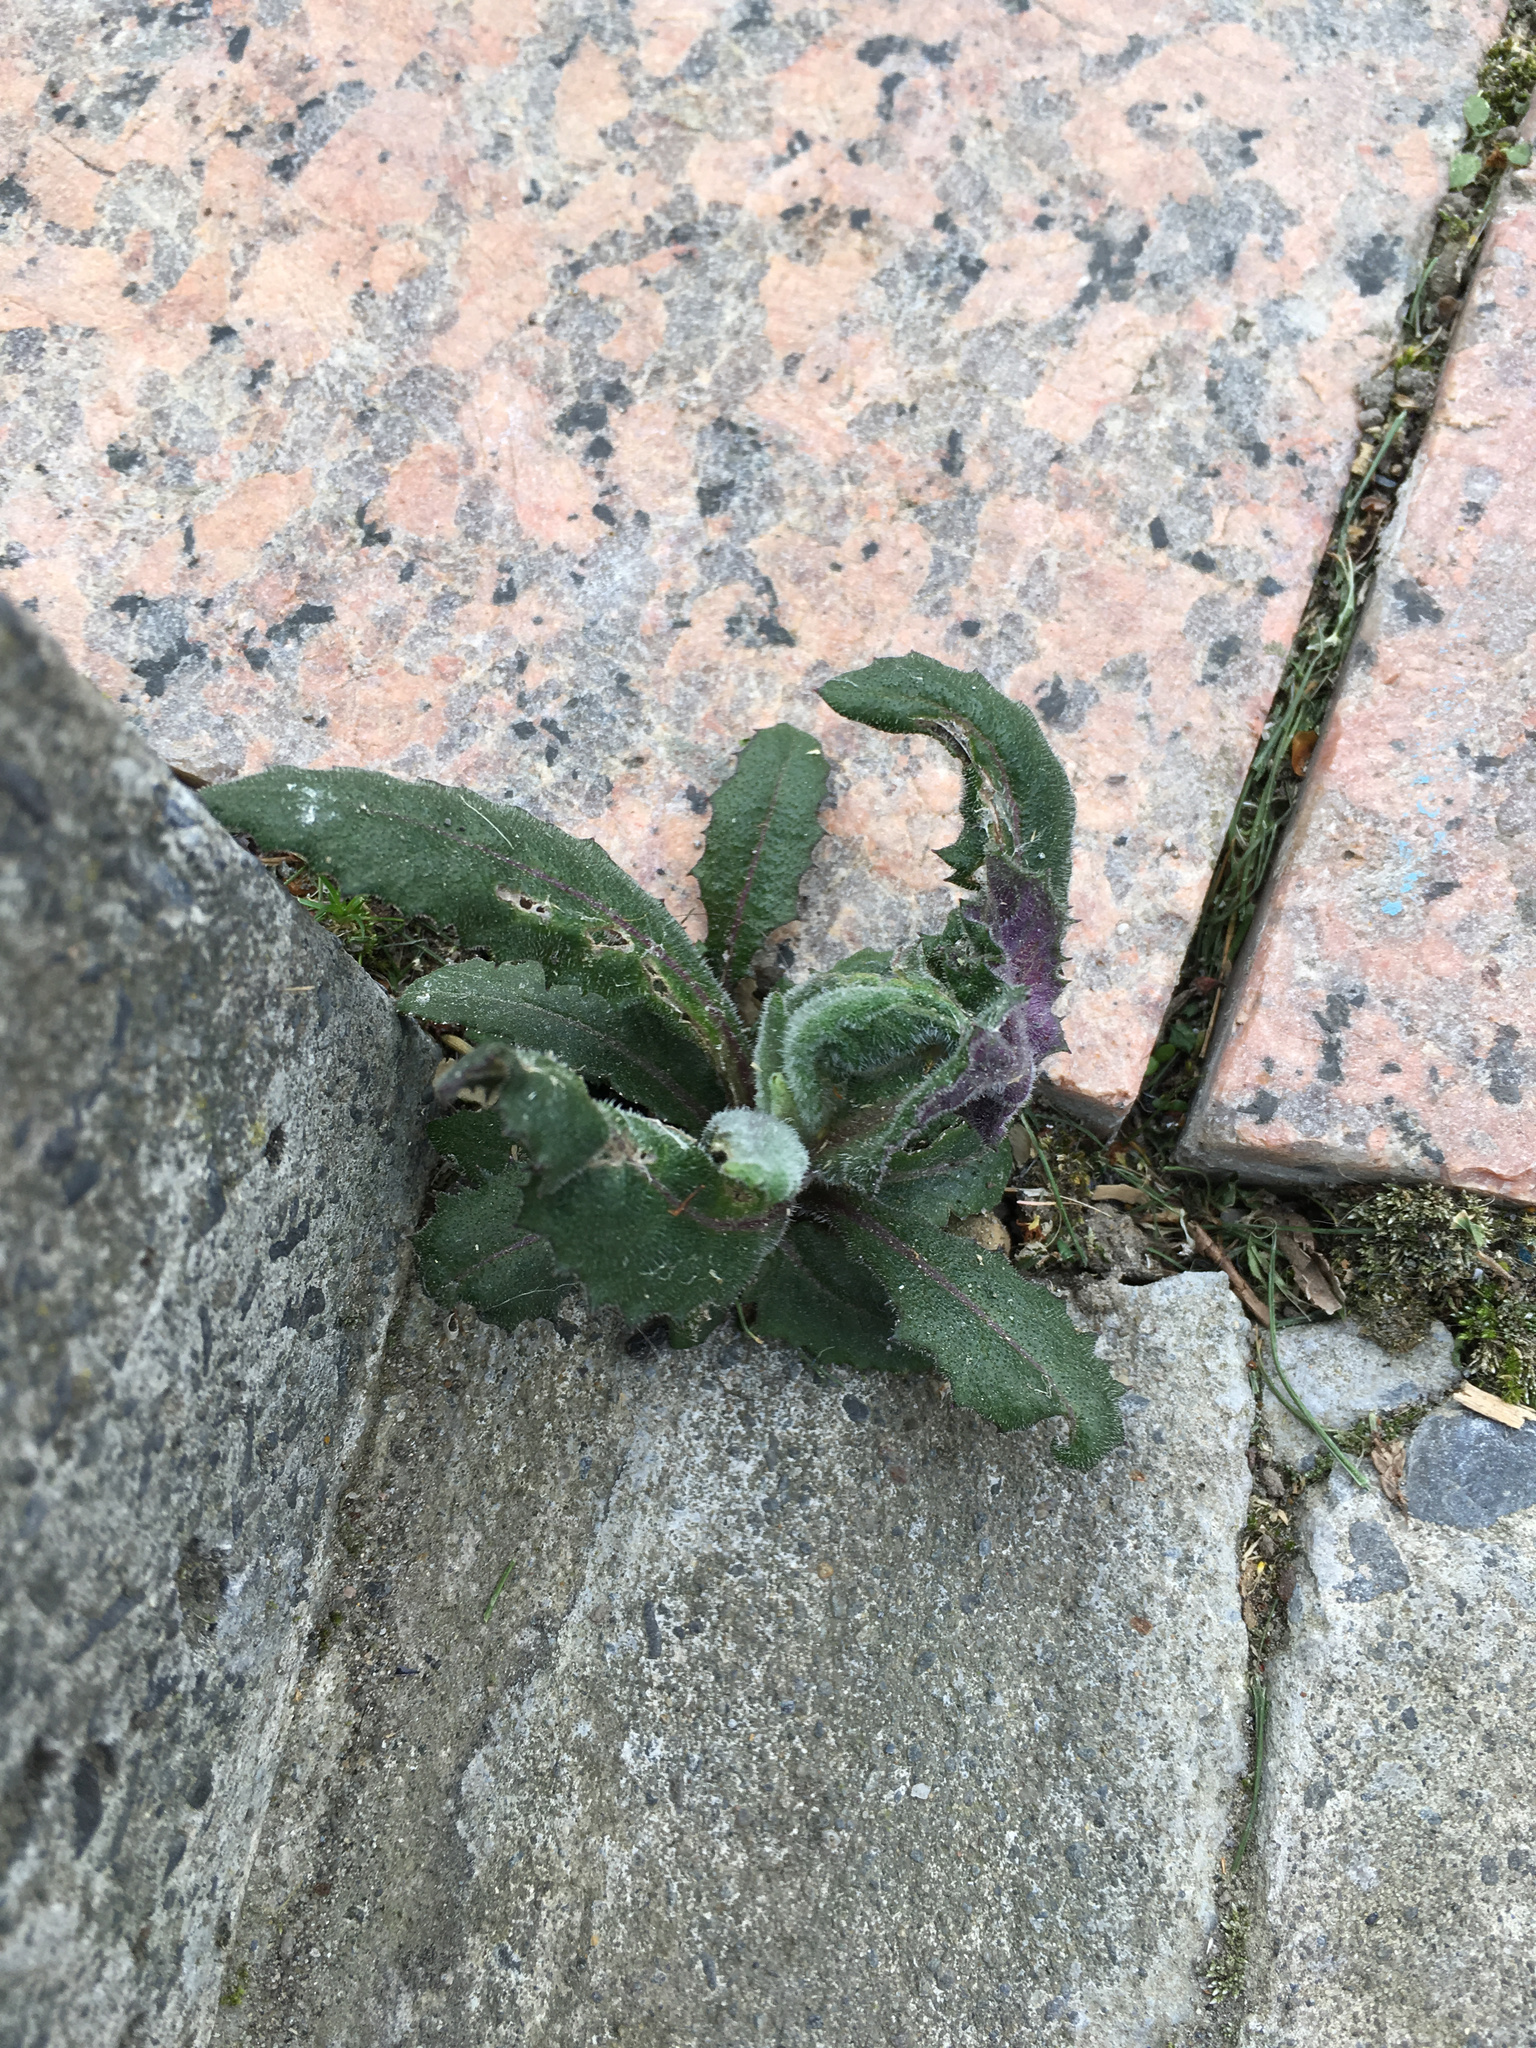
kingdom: Plantae
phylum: Tracheophyta
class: Magnoliopsida
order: Asterales
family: Asteraceae
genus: Senecio
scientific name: Senecio minimus
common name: Toothed fireweed
